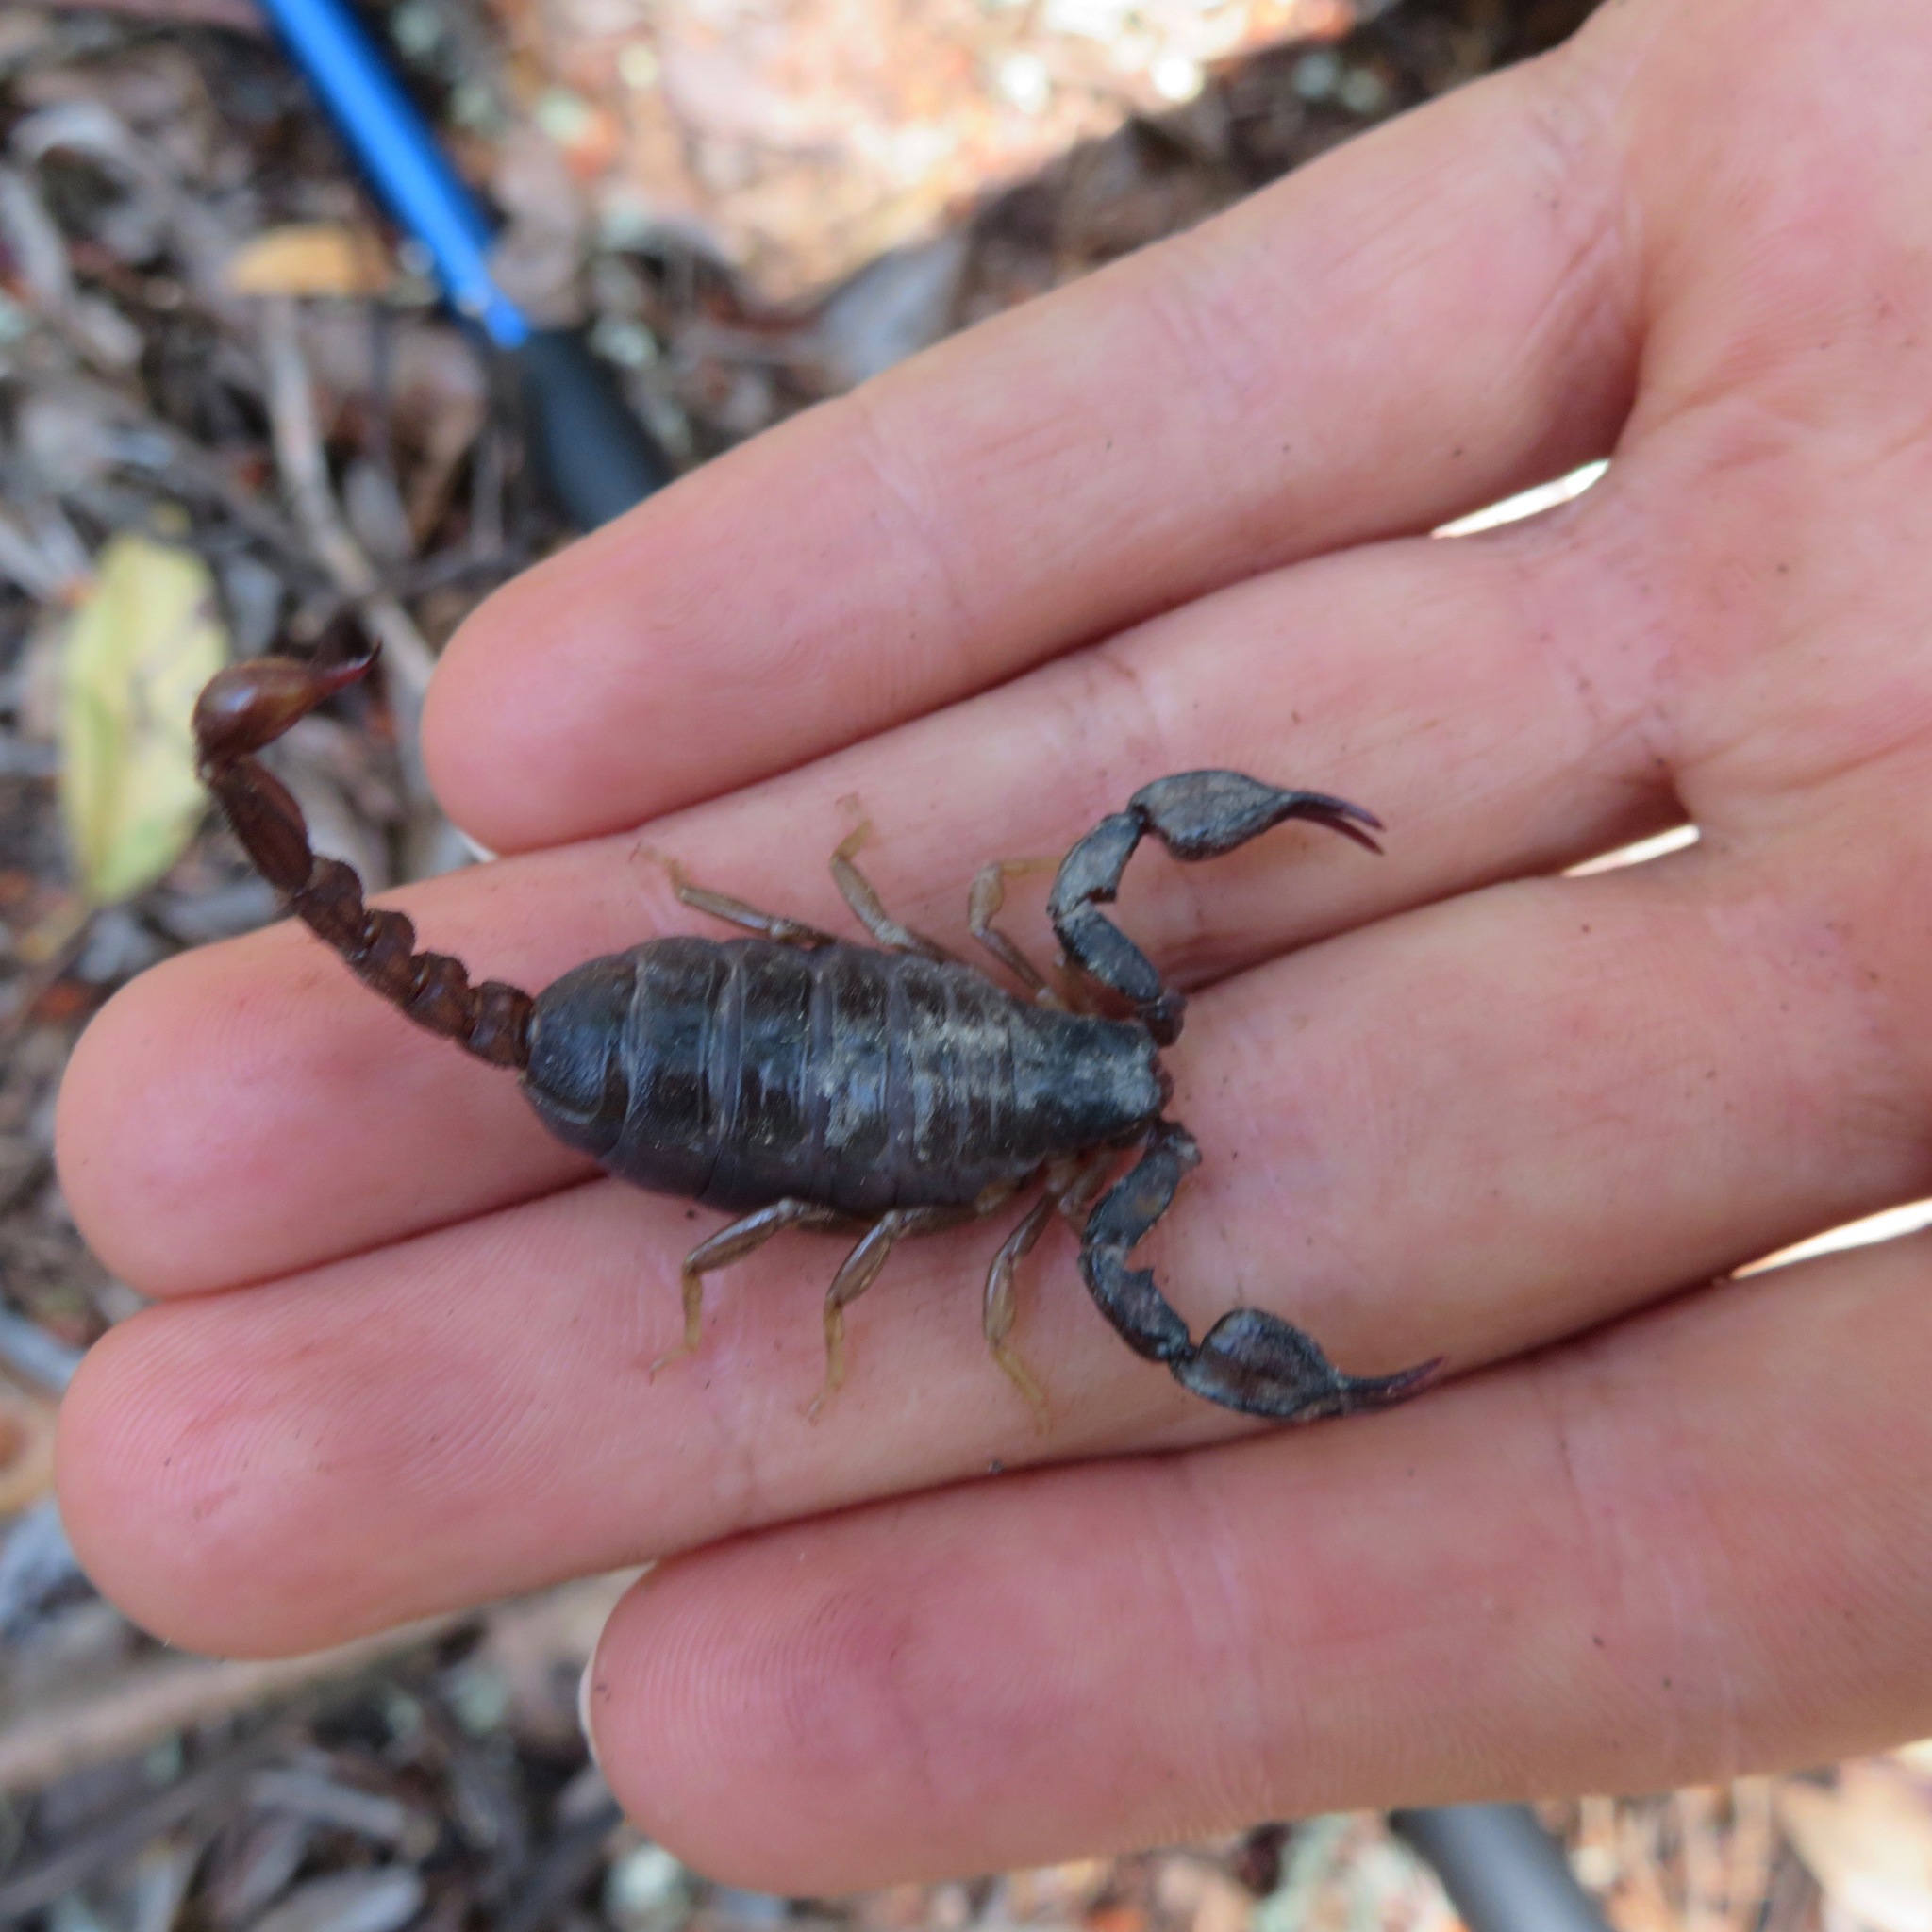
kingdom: Animalia
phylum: Arthropoda
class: Arachnida
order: Scorpiones
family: Chactidae
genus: Uroctonus
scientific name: Uroctonus mordax
